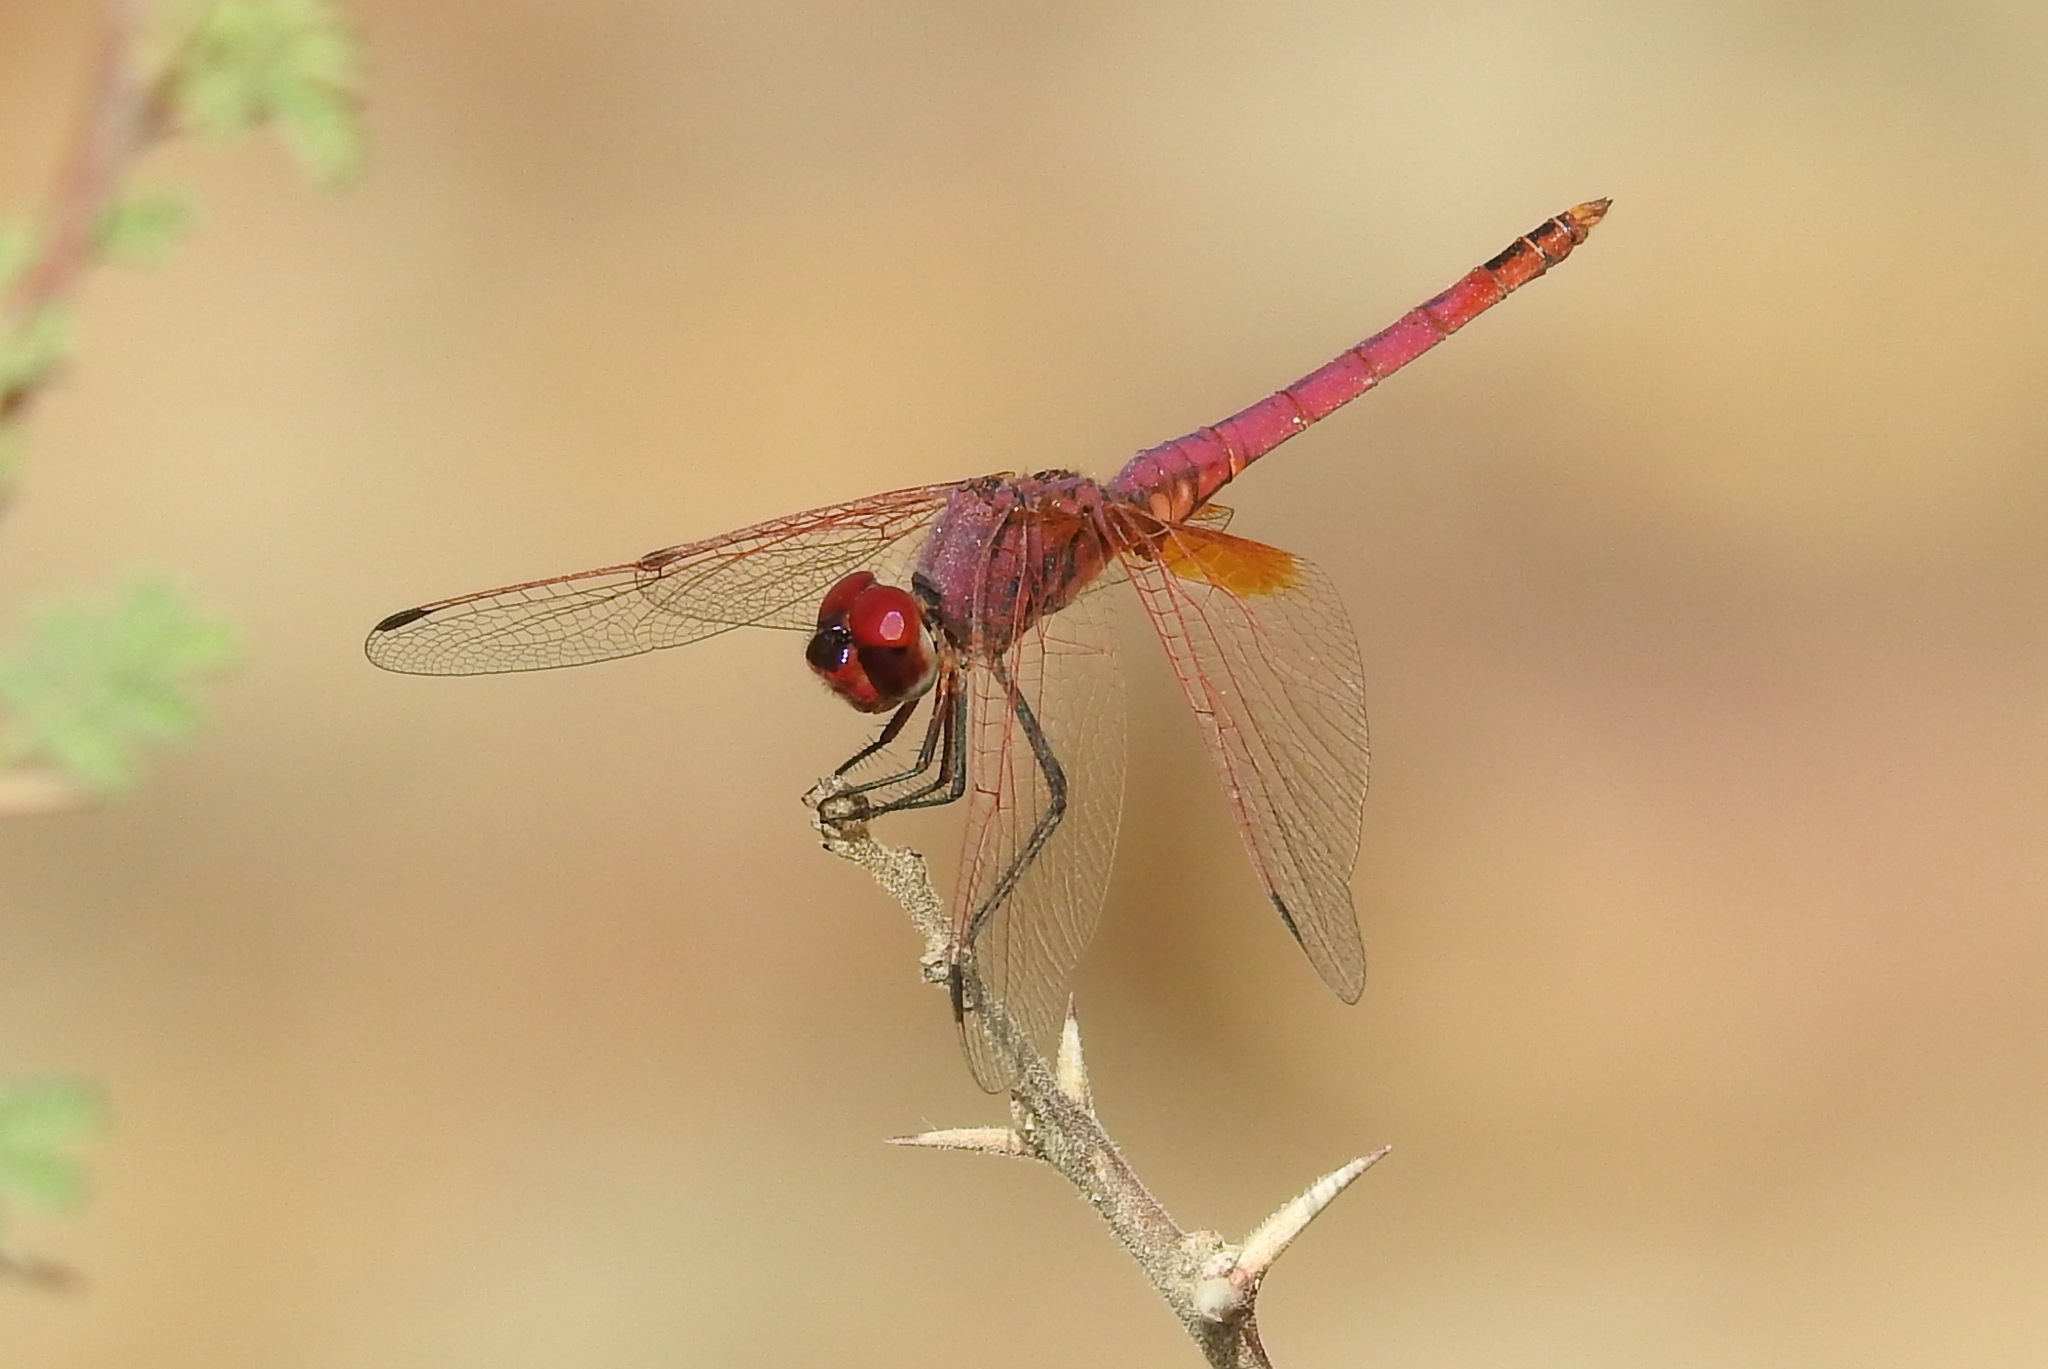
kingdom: Animalia
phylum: Arthropoda
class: Insecta
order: Odonata
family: Libellulidae
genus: Trithemis
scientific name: Trithemis annulata
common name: Violet dropwing
